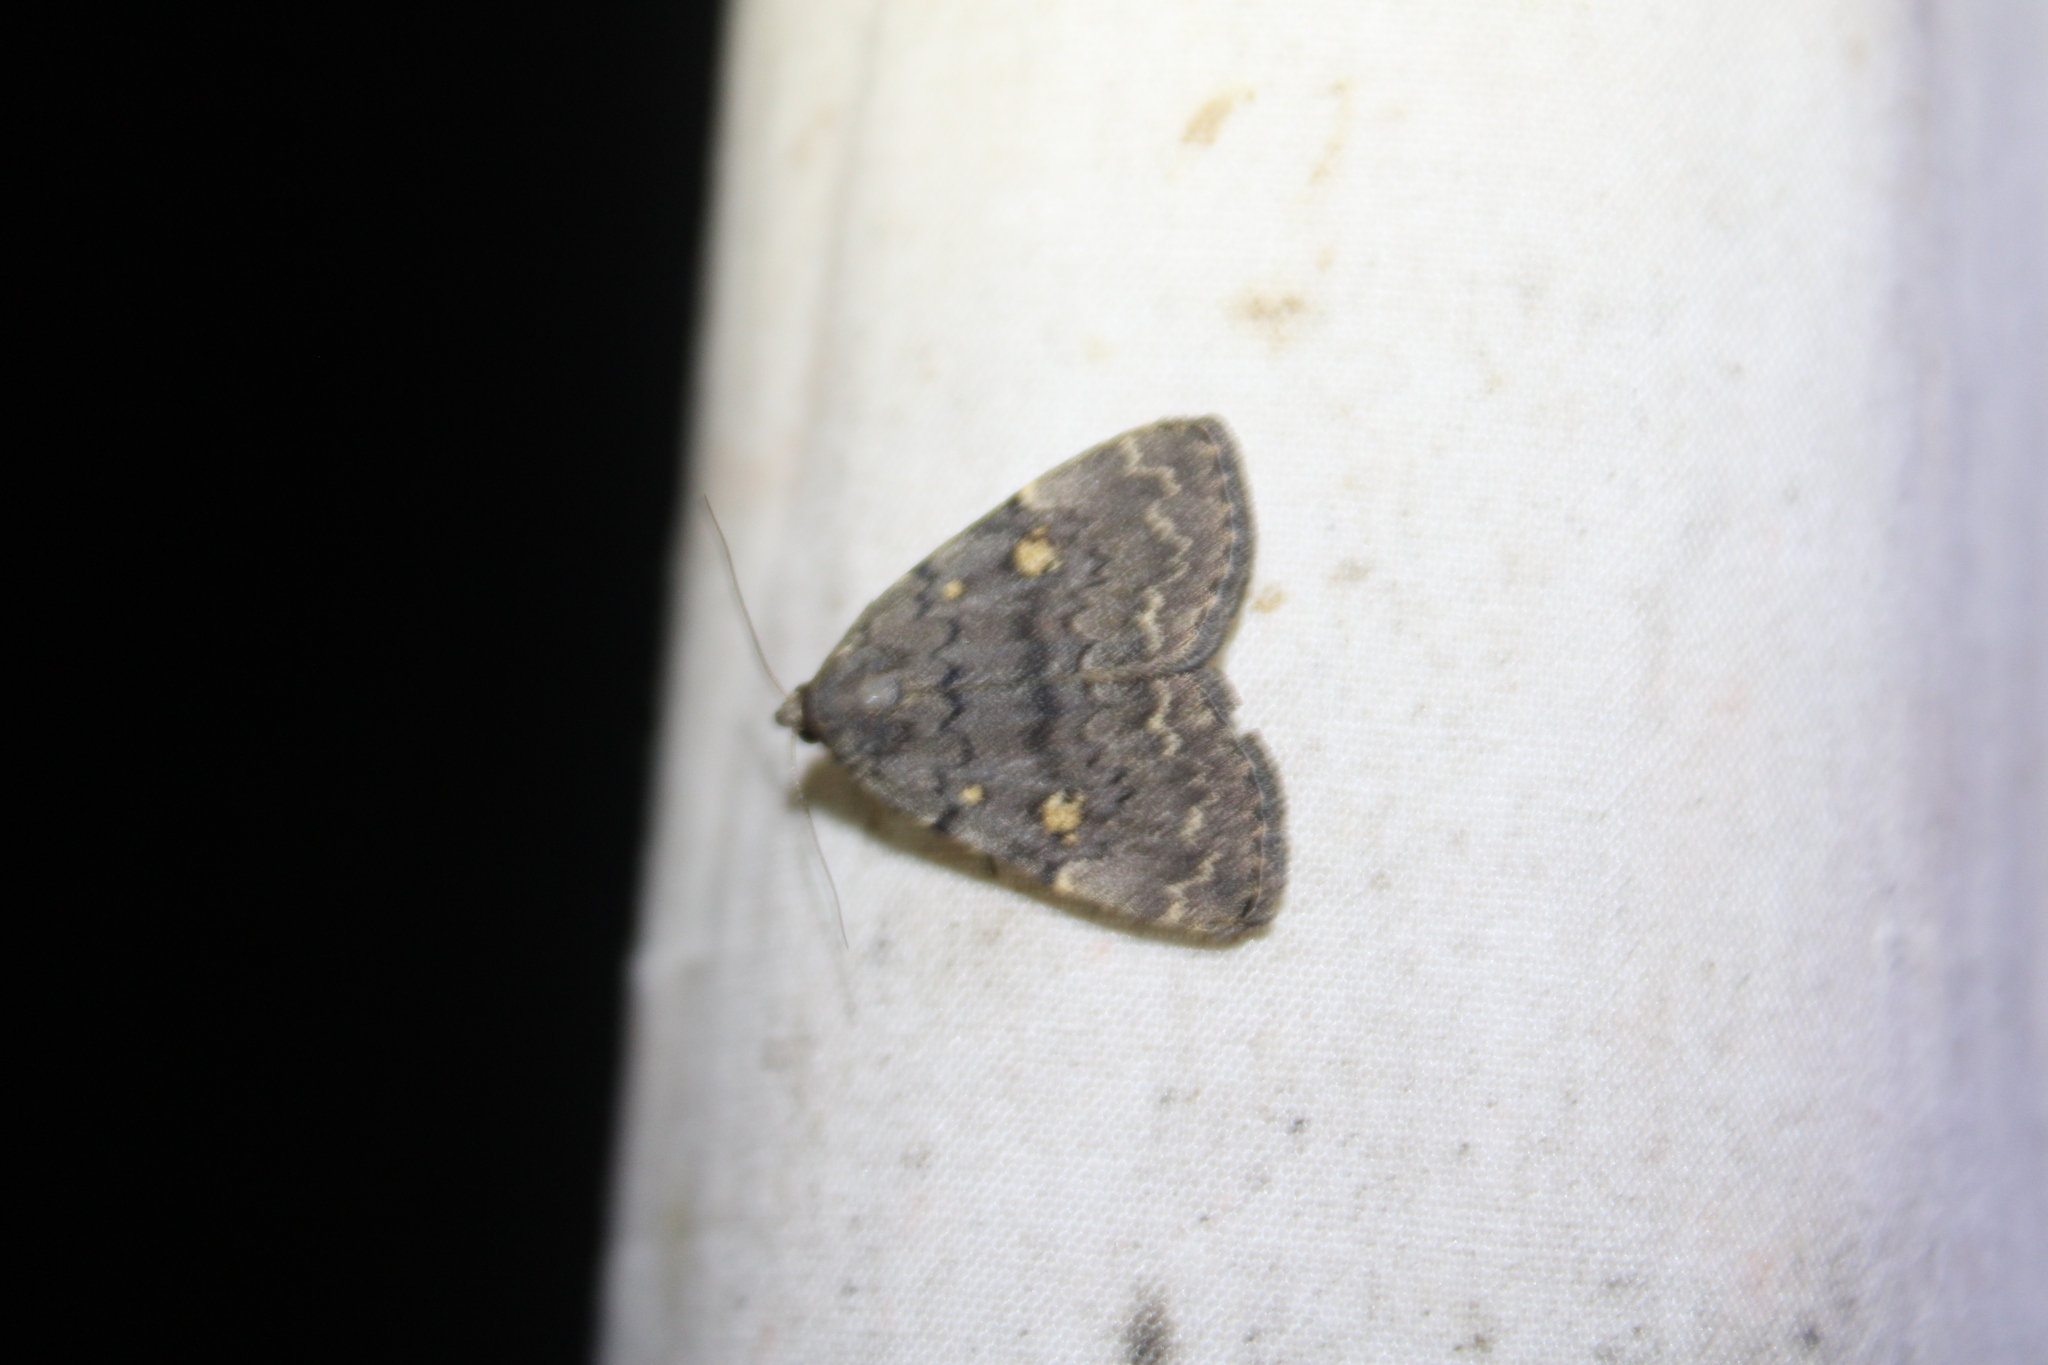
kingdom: Animalia
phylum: Arthropoda
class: Insecta
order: Lepidoptera
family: Erebidae
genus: Idia
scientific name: Idia aemula
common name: Common idia moth
